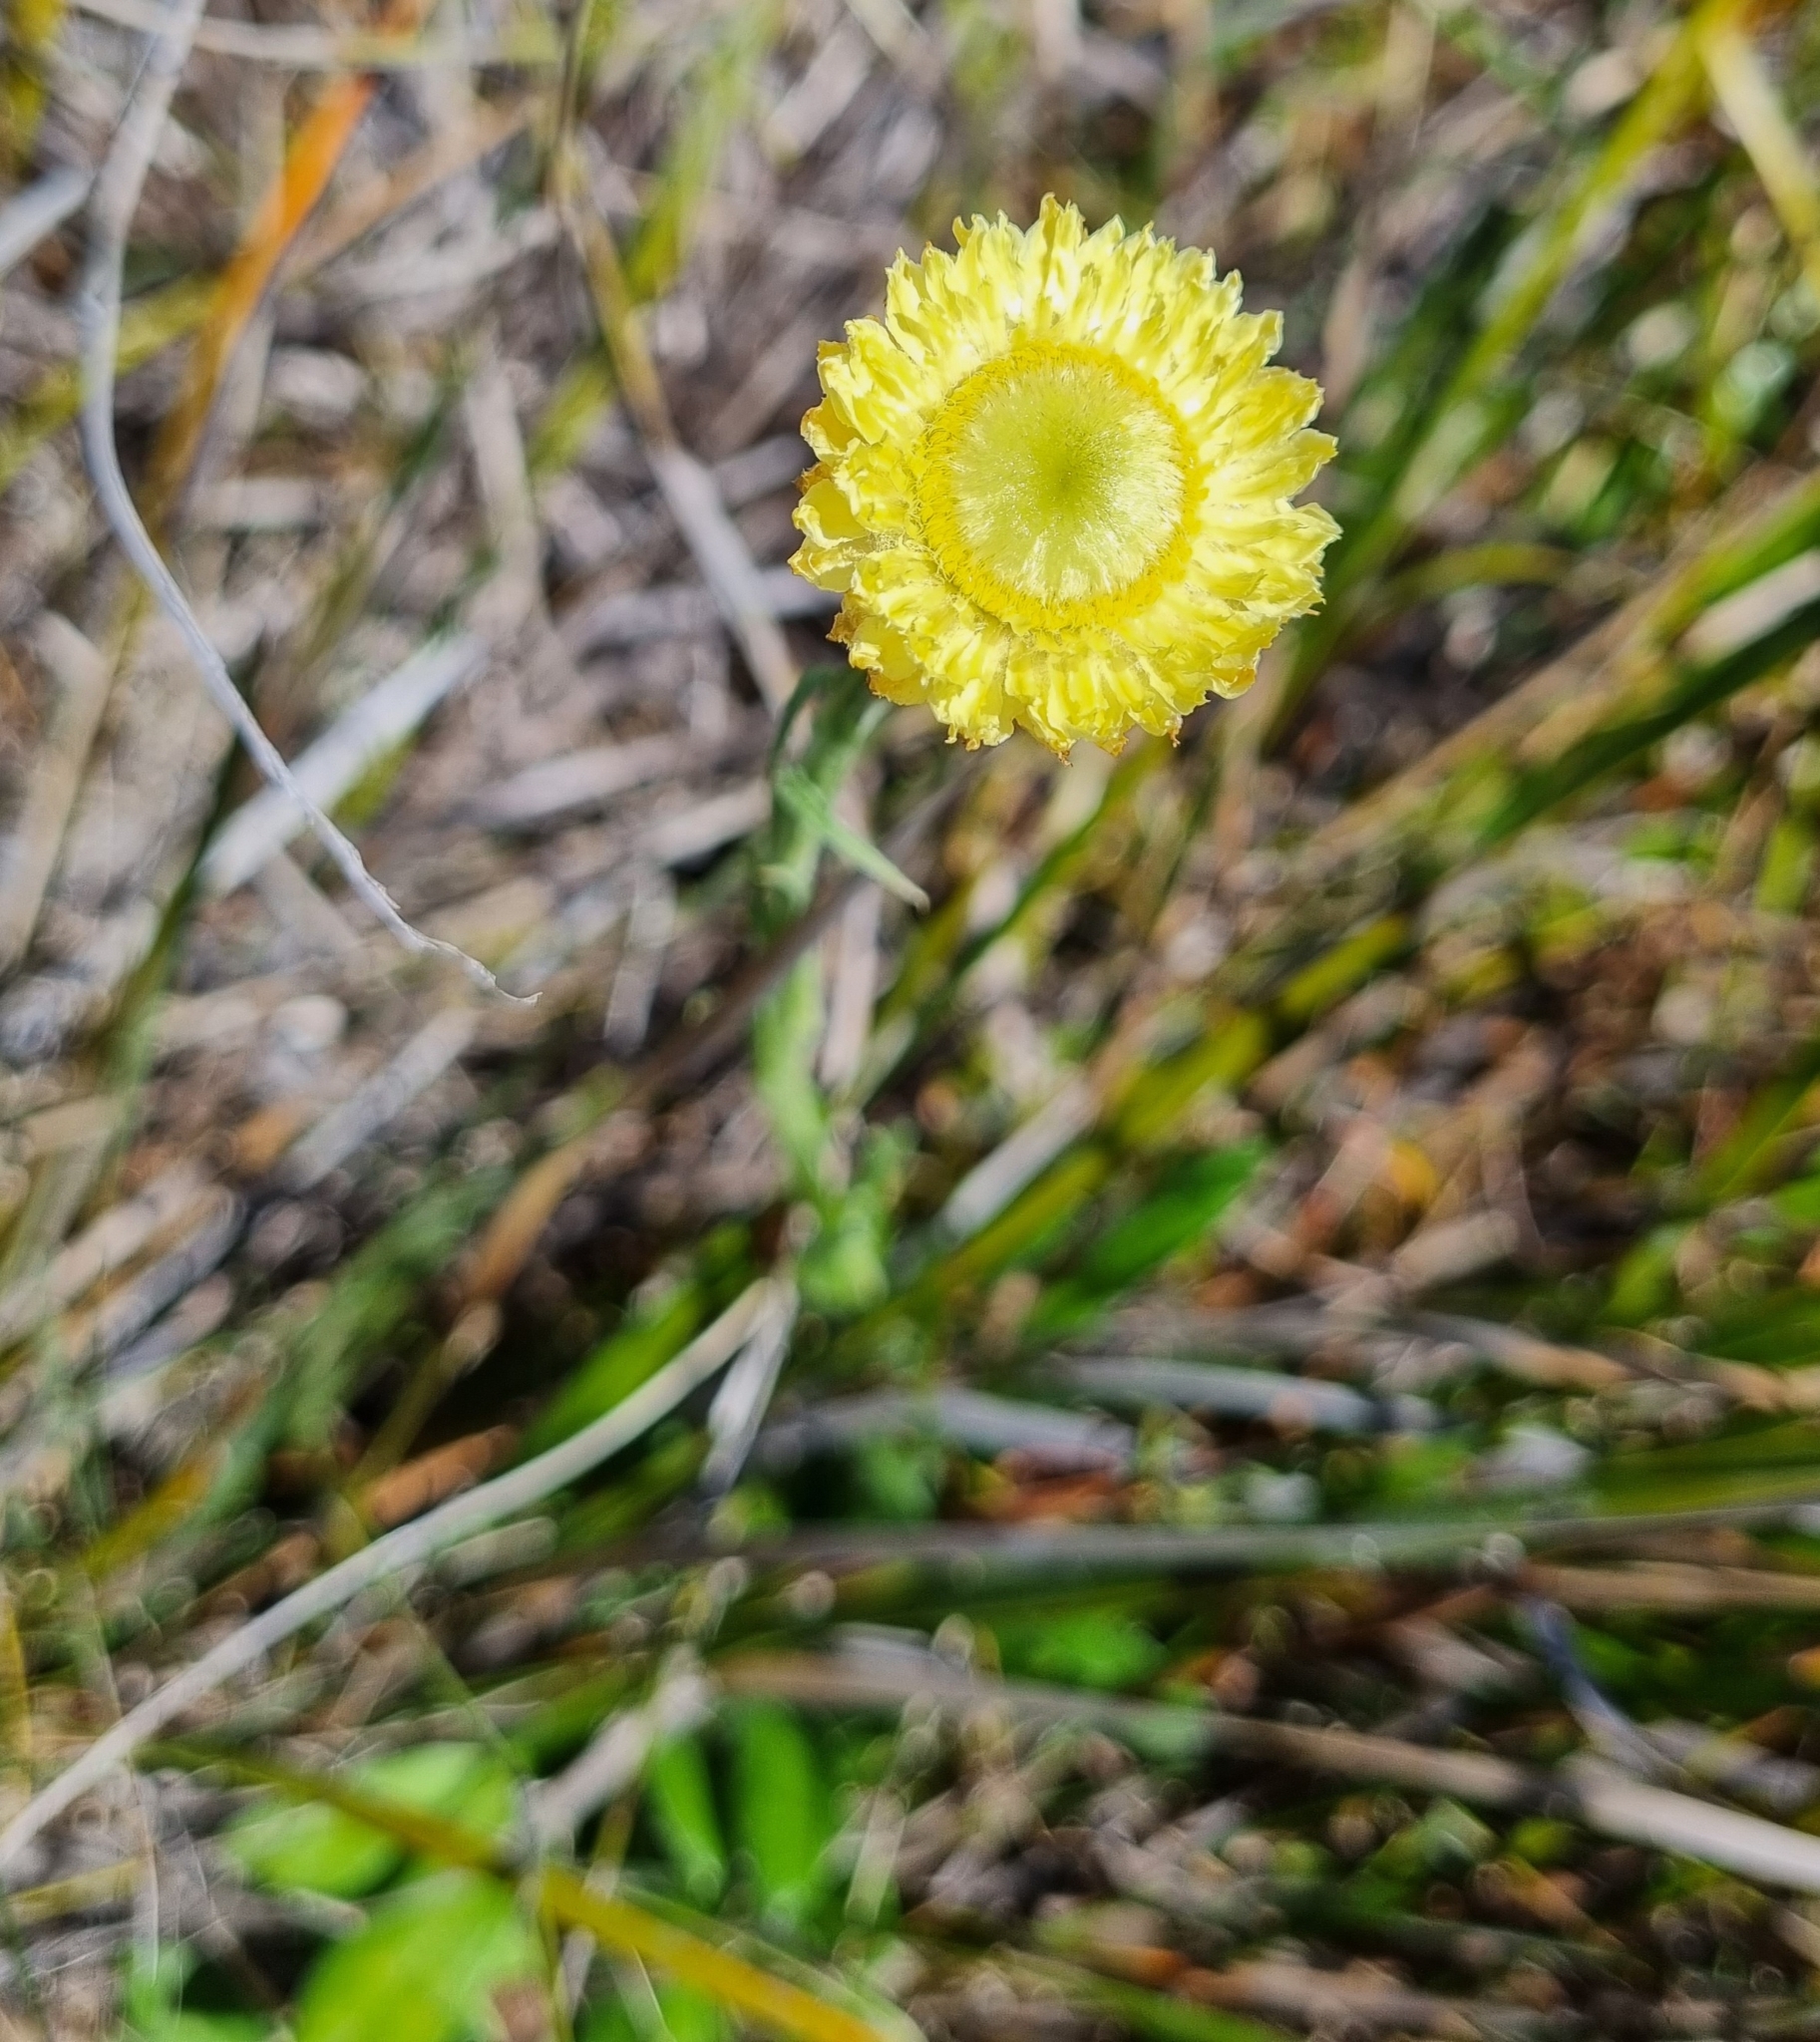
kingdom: Plantae
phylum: Tracheophyta
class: Magnoliopsida
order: Asterales
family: Asteraceae
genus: Coronidium
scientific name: Coronidium scorpioides
